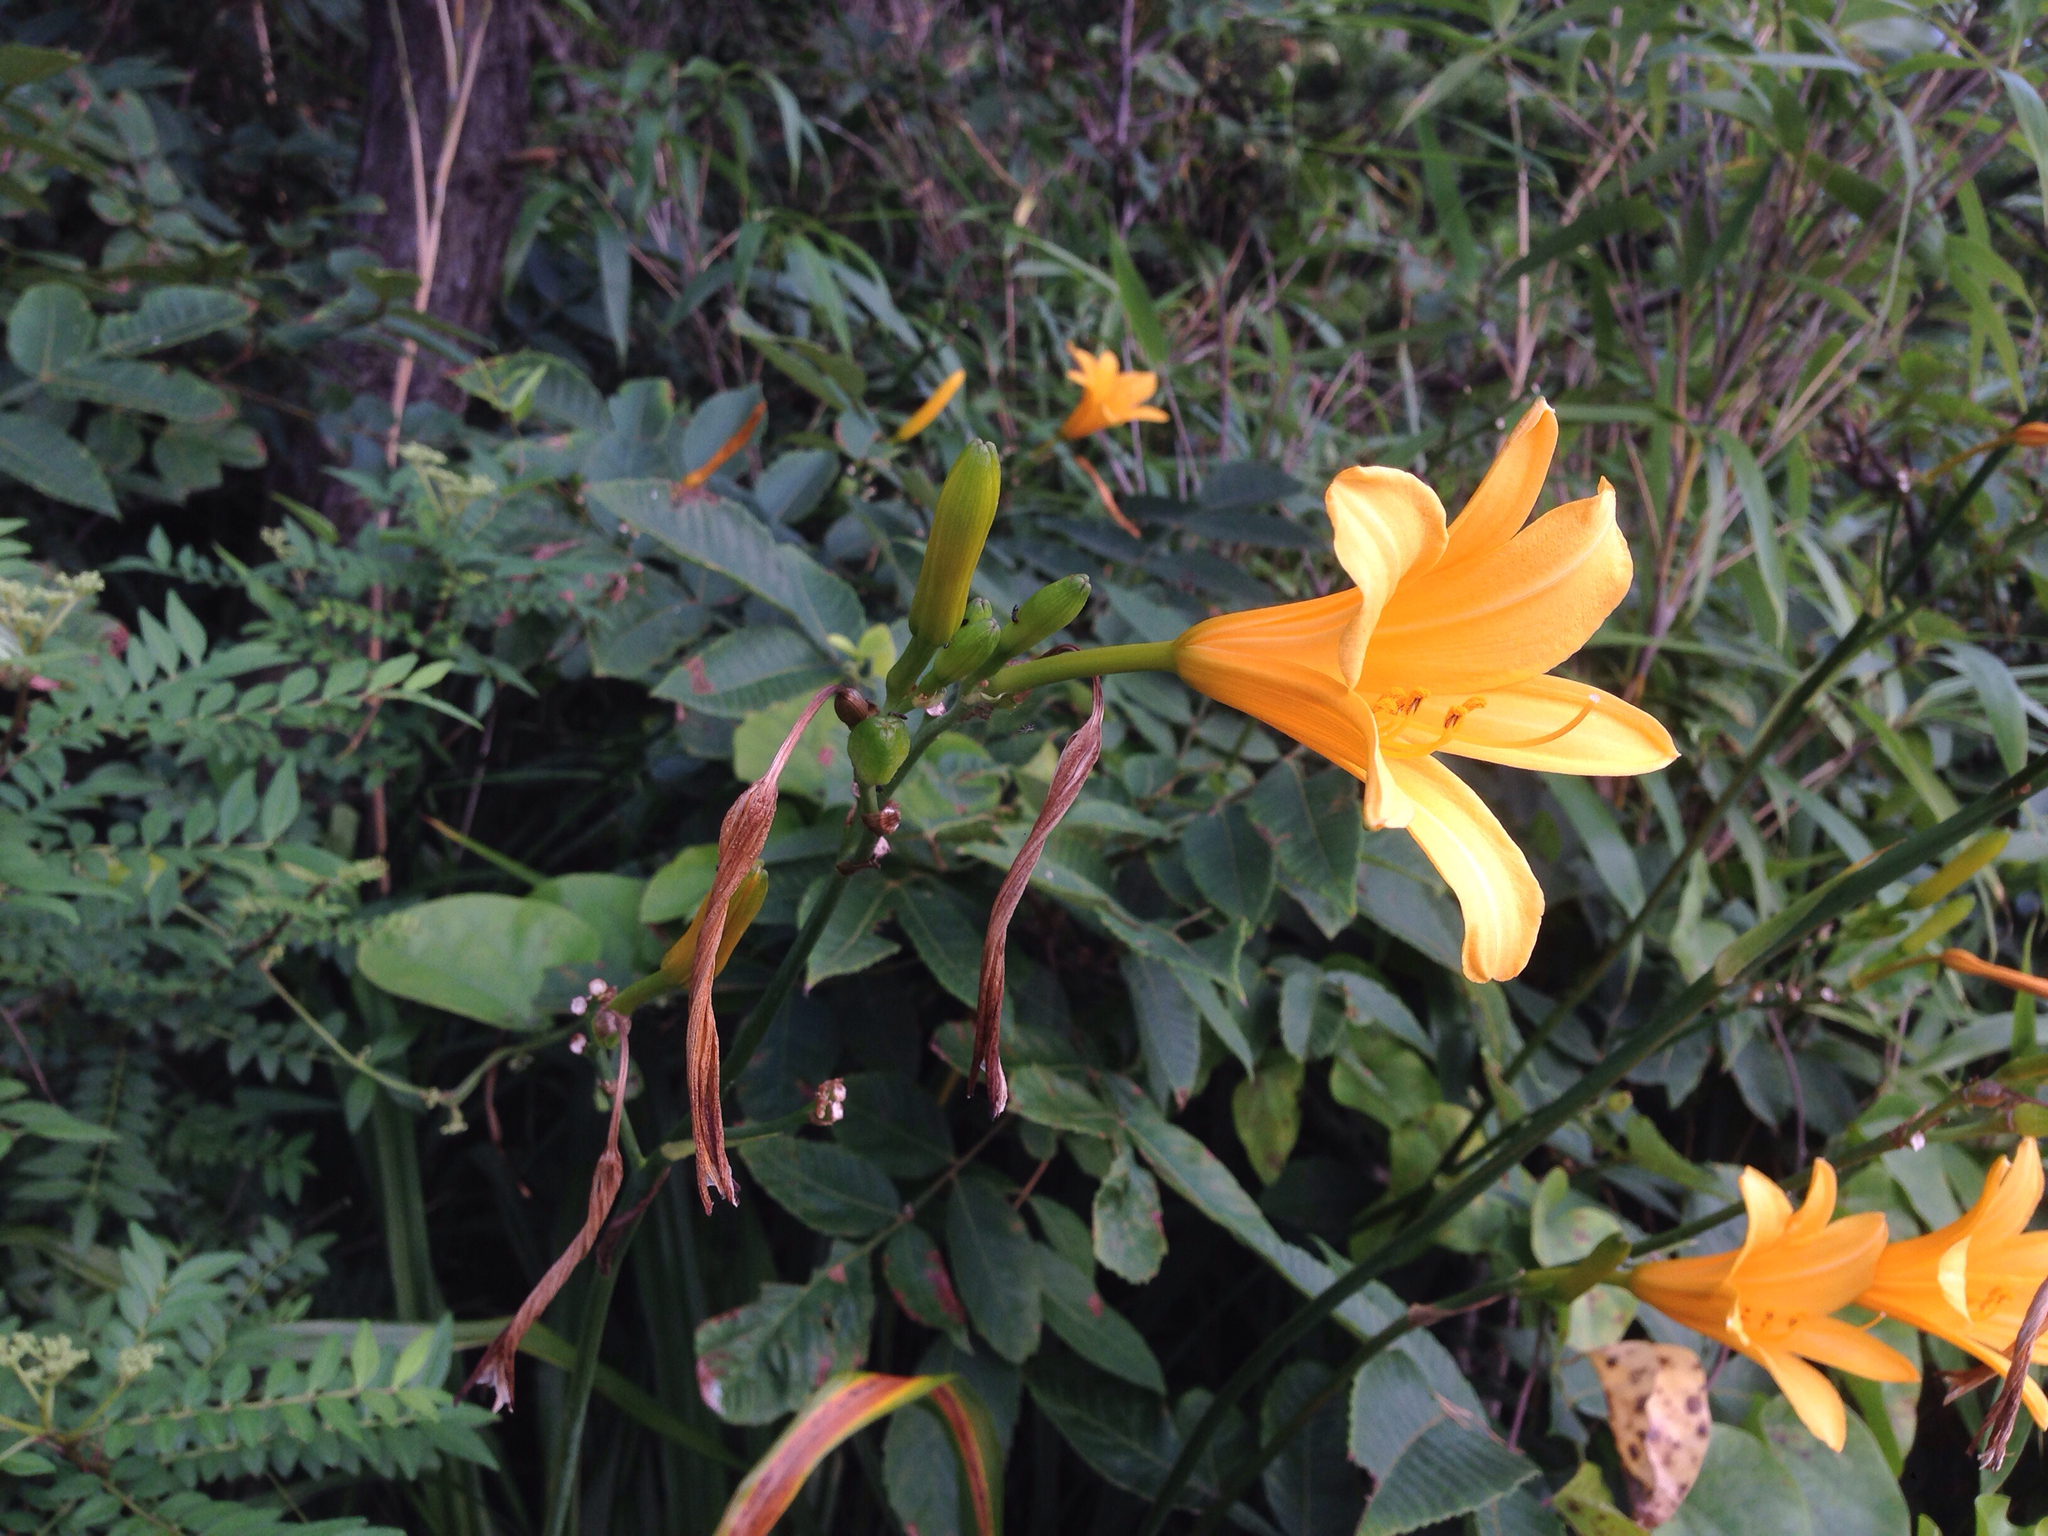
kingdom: Plantae
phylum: Tracheophyta
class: Liliopsida
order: Asparagales
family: Asphodelaceae
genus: Hemerocallis
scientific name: Hemerocallis hakuunensis
